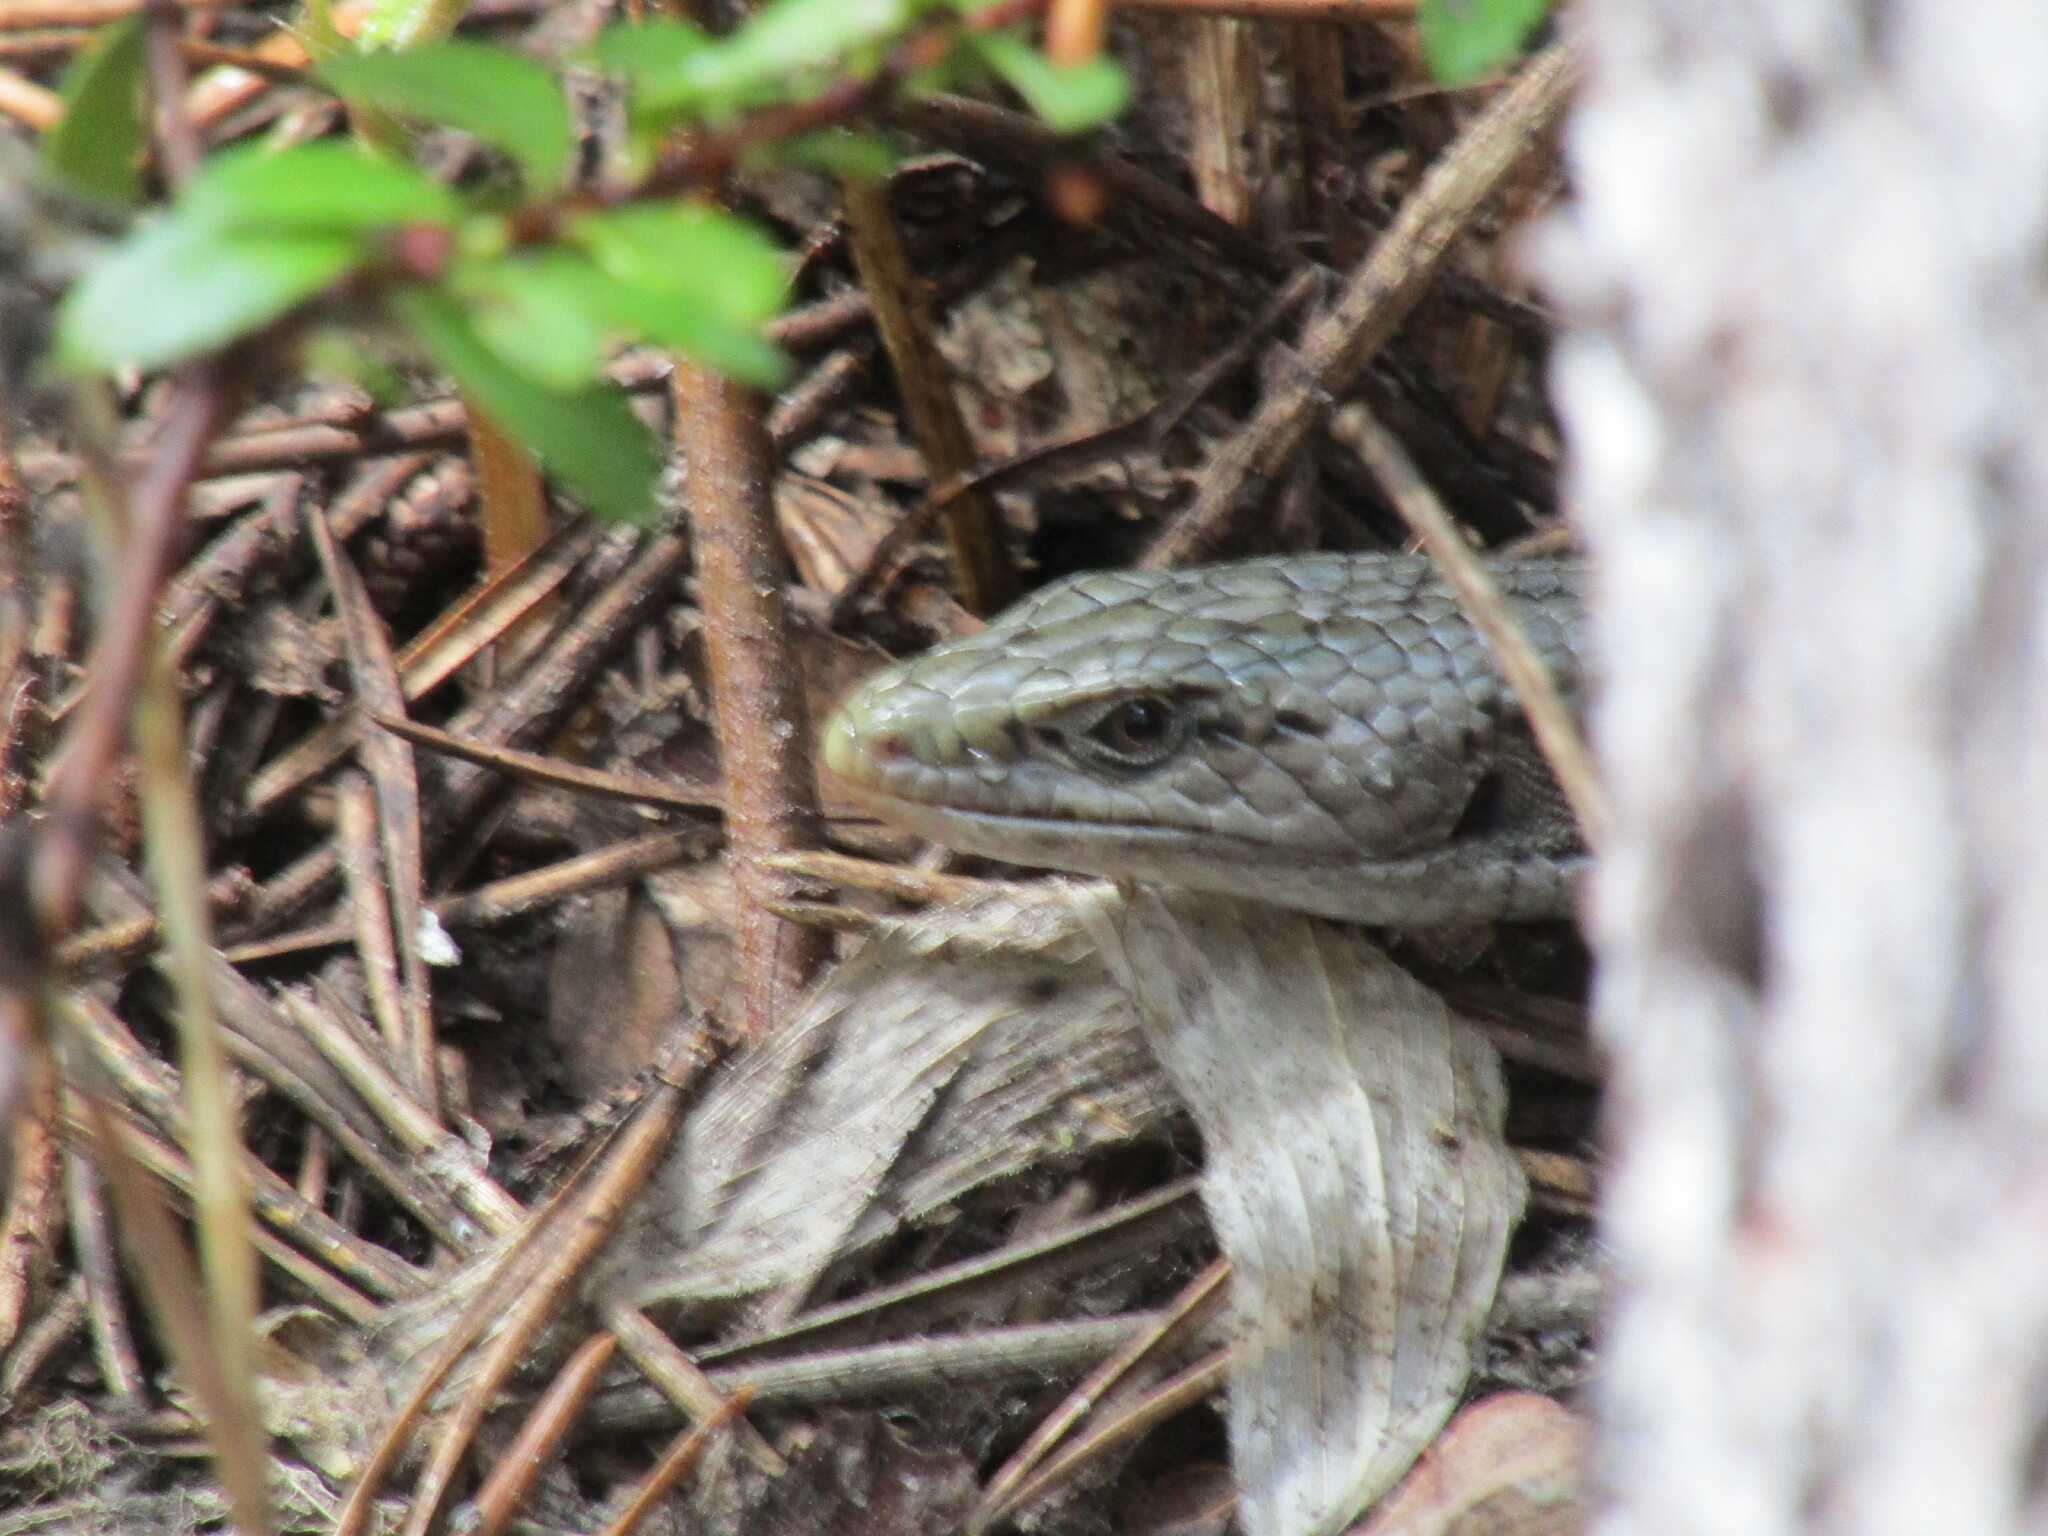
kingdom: Animalia
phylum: Chordata
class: Squamata
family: Anguidae
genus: Elgaria
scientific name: Elgaria coerulea
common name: Northern alligator lizard
